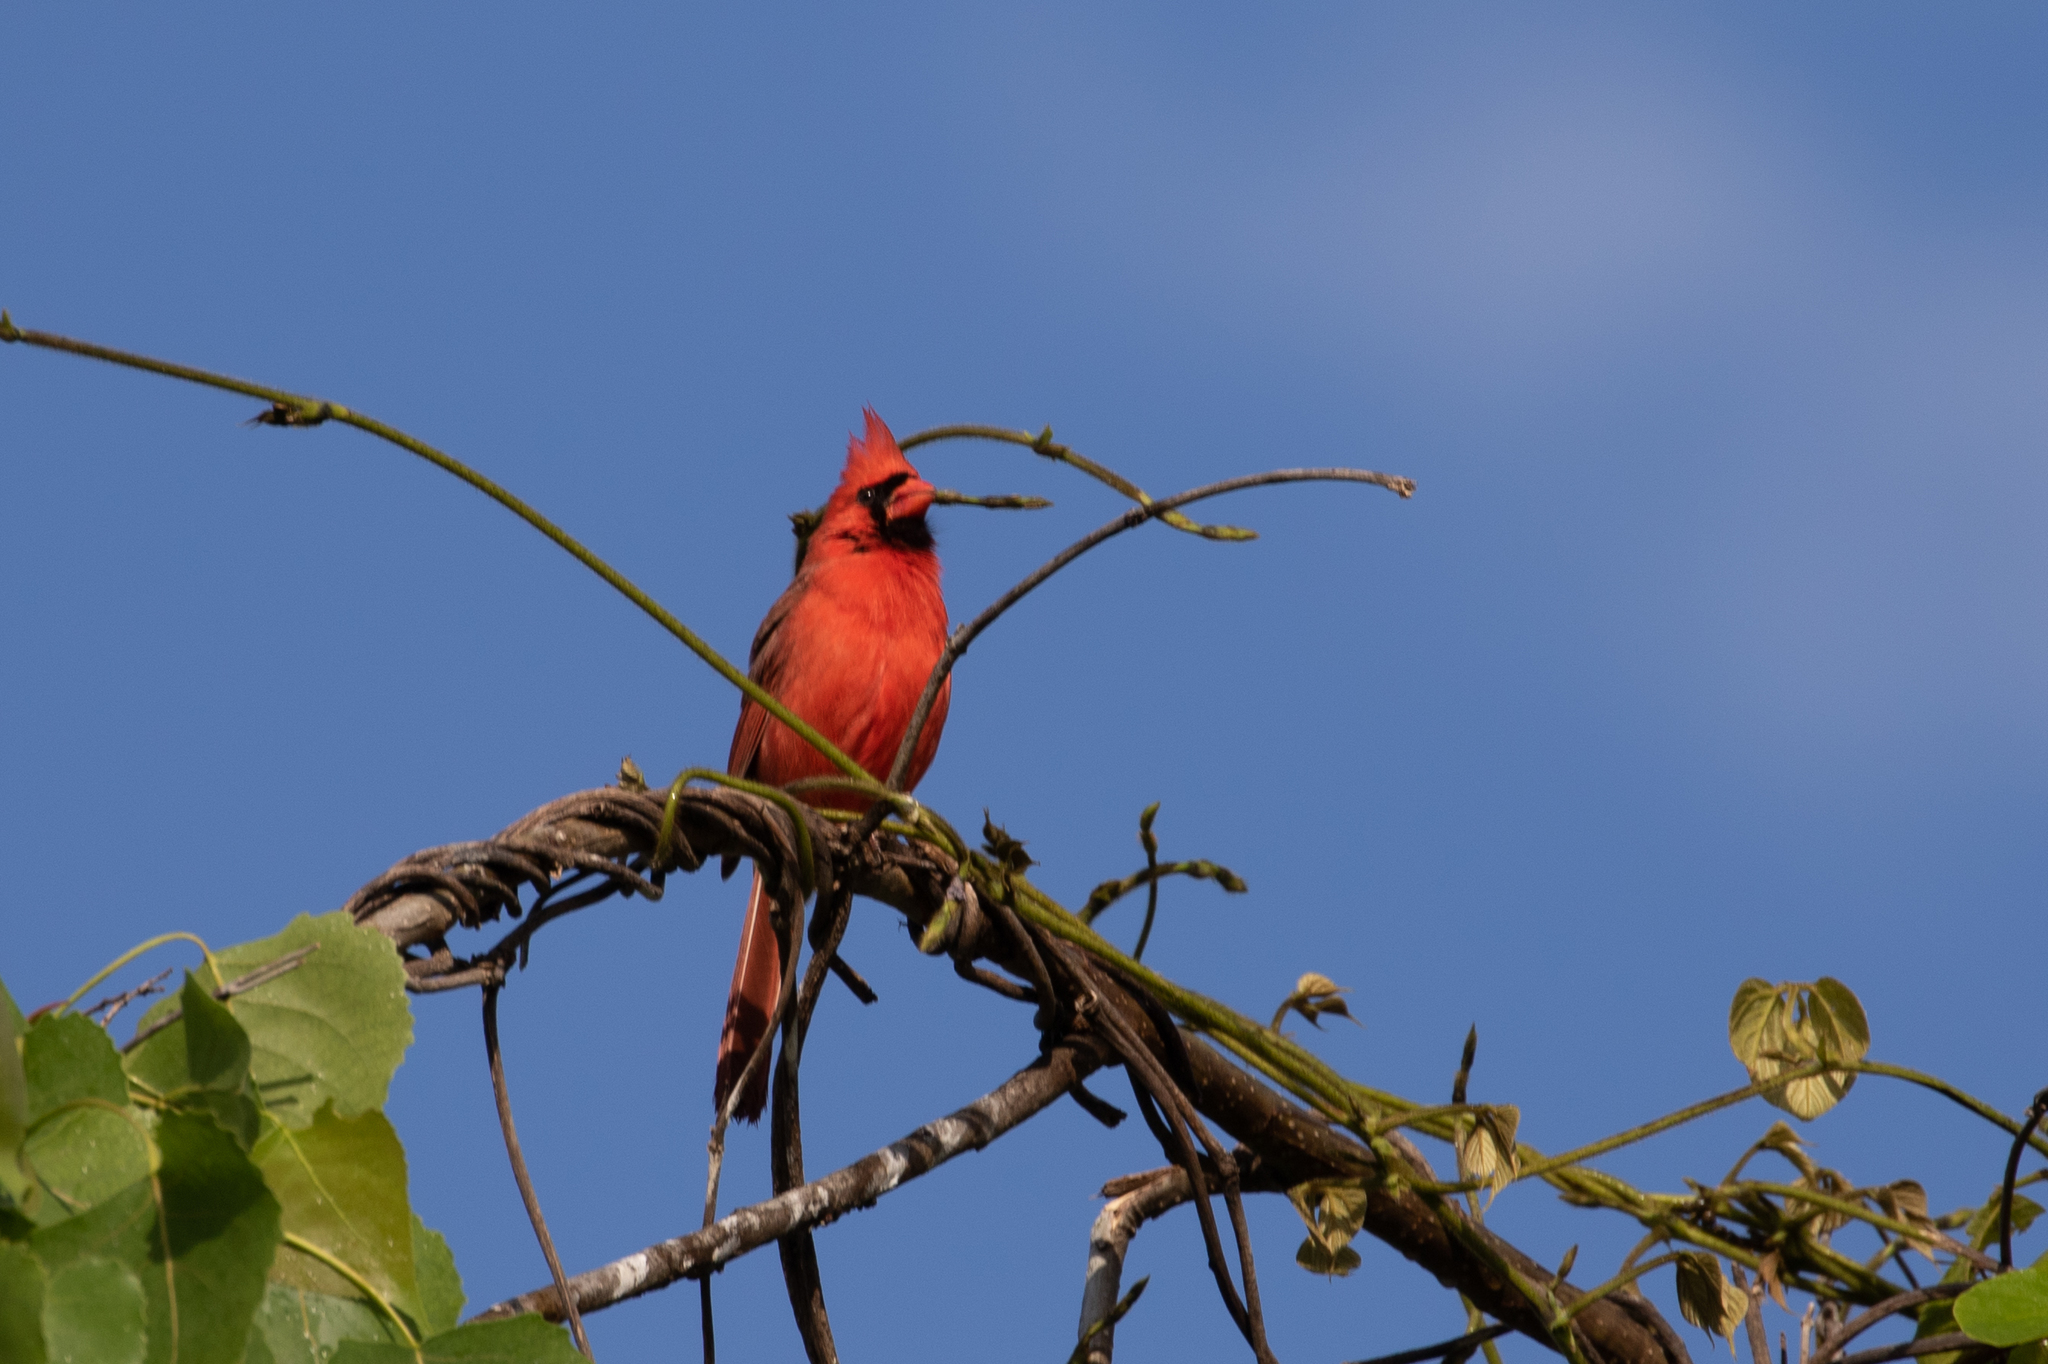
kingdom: Animalia
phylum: Chordata
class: Aves
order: Passeriformes
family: Cardinalidae
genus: Cardinalis
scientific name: Cardinalis cardinalis
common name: Northern cardinal
